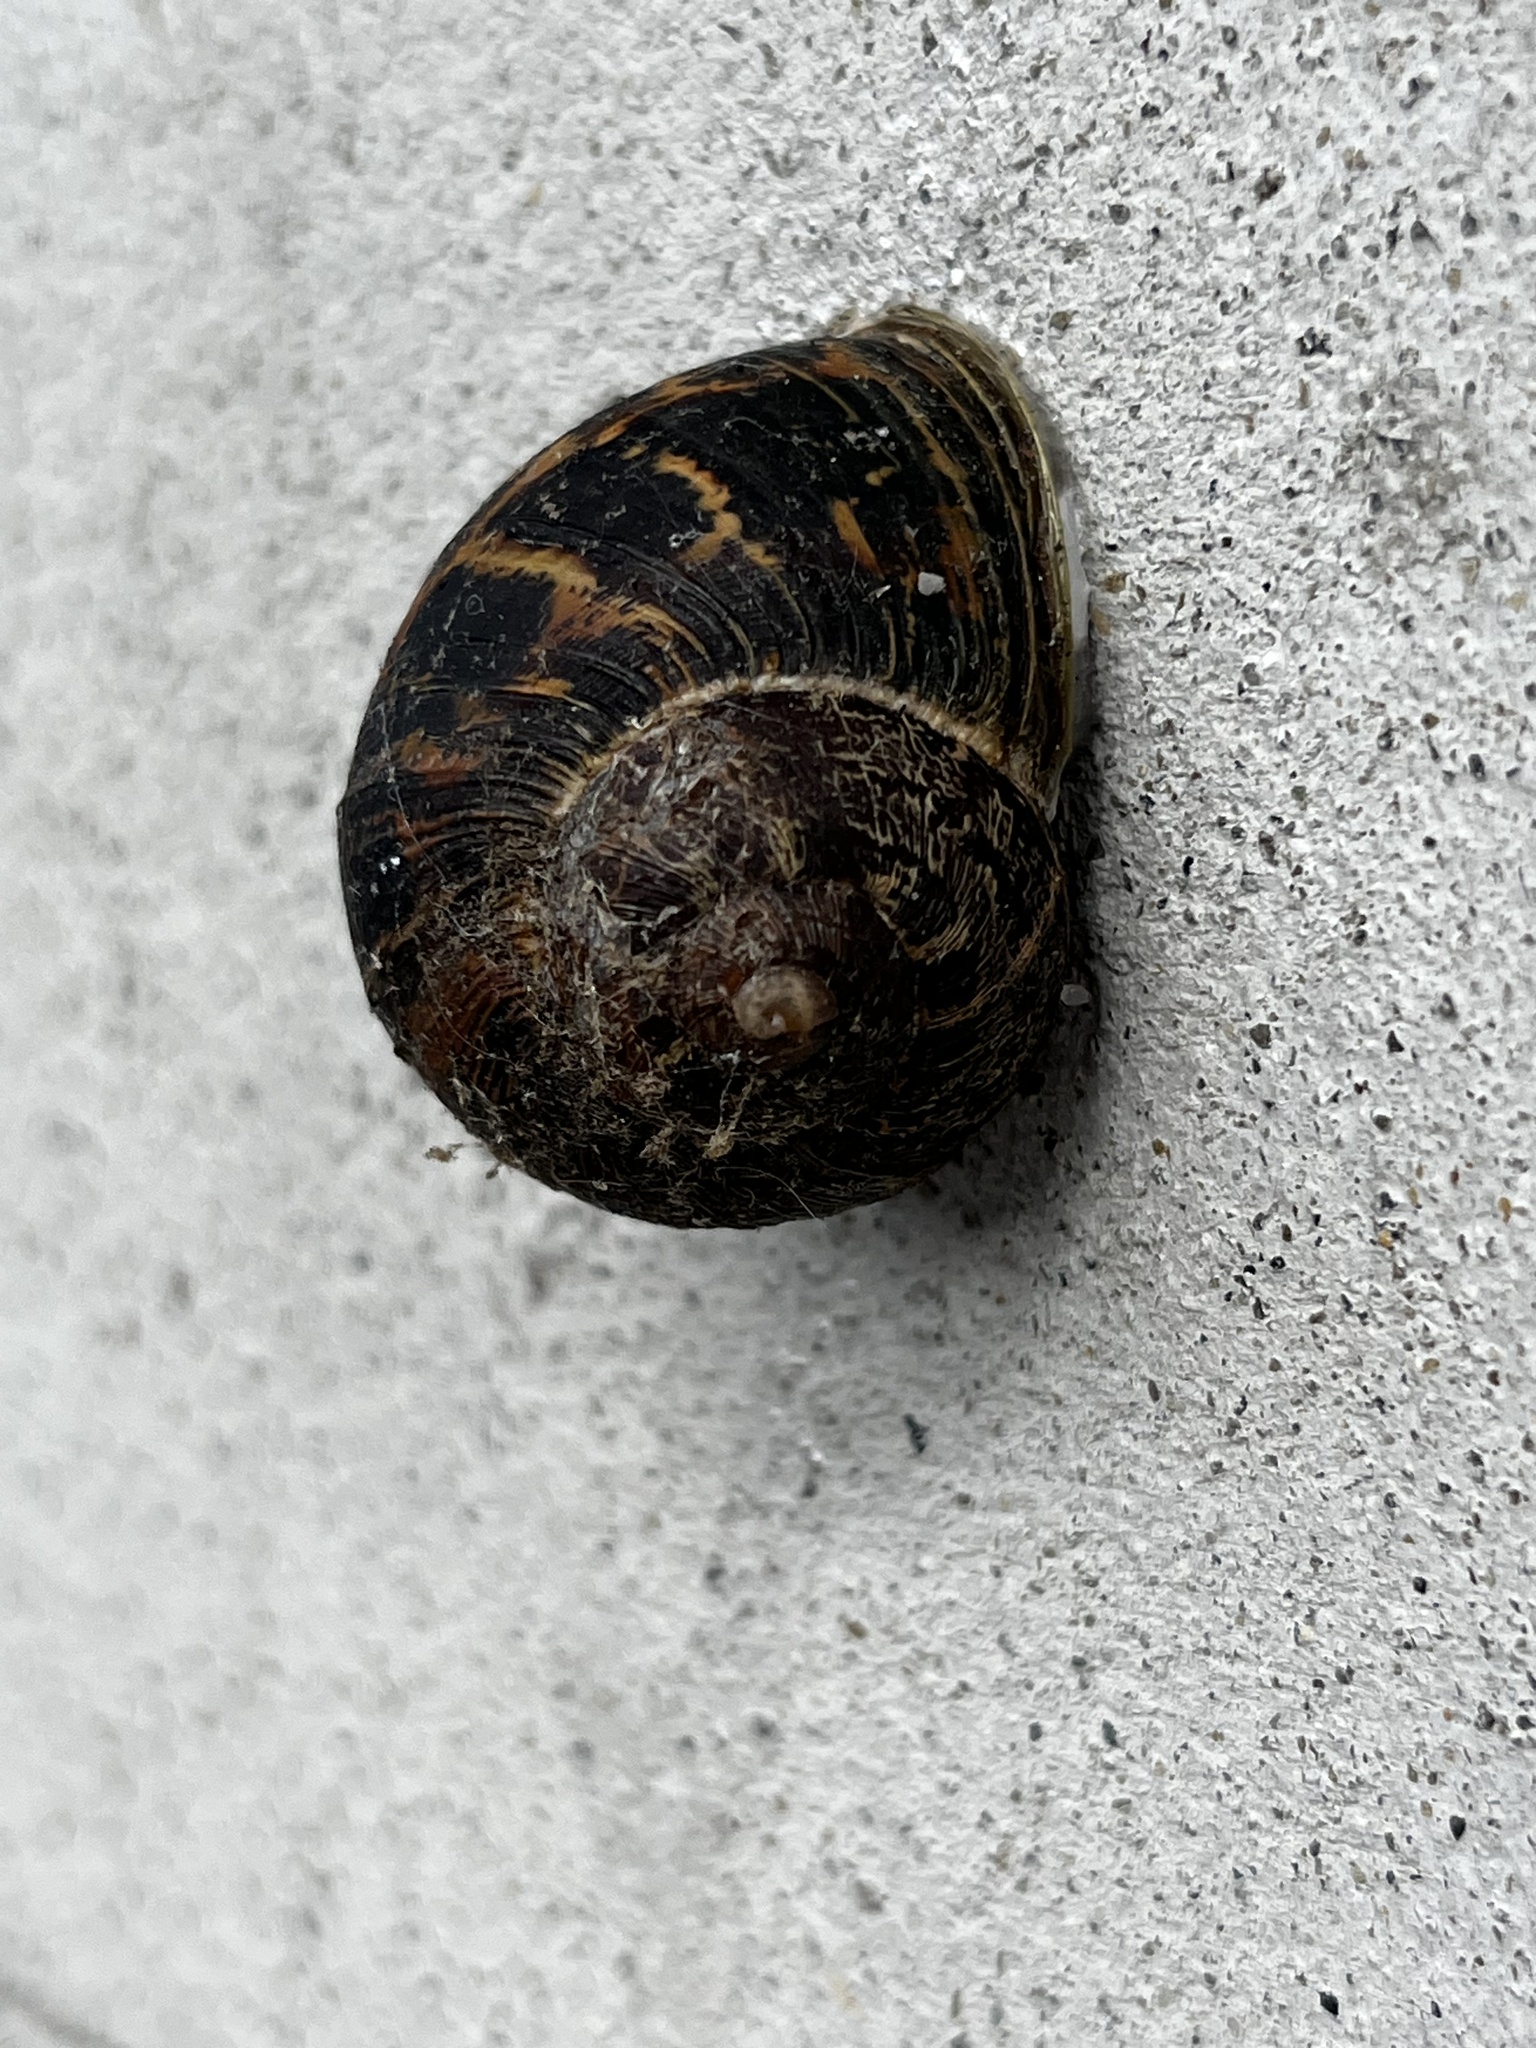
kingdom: Animalia
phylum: Mollusca
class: Gastropoda
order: Stylommatophora
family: Helicidae
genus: Cornu
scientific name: Cornu aspersum
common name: Brown garden snail
